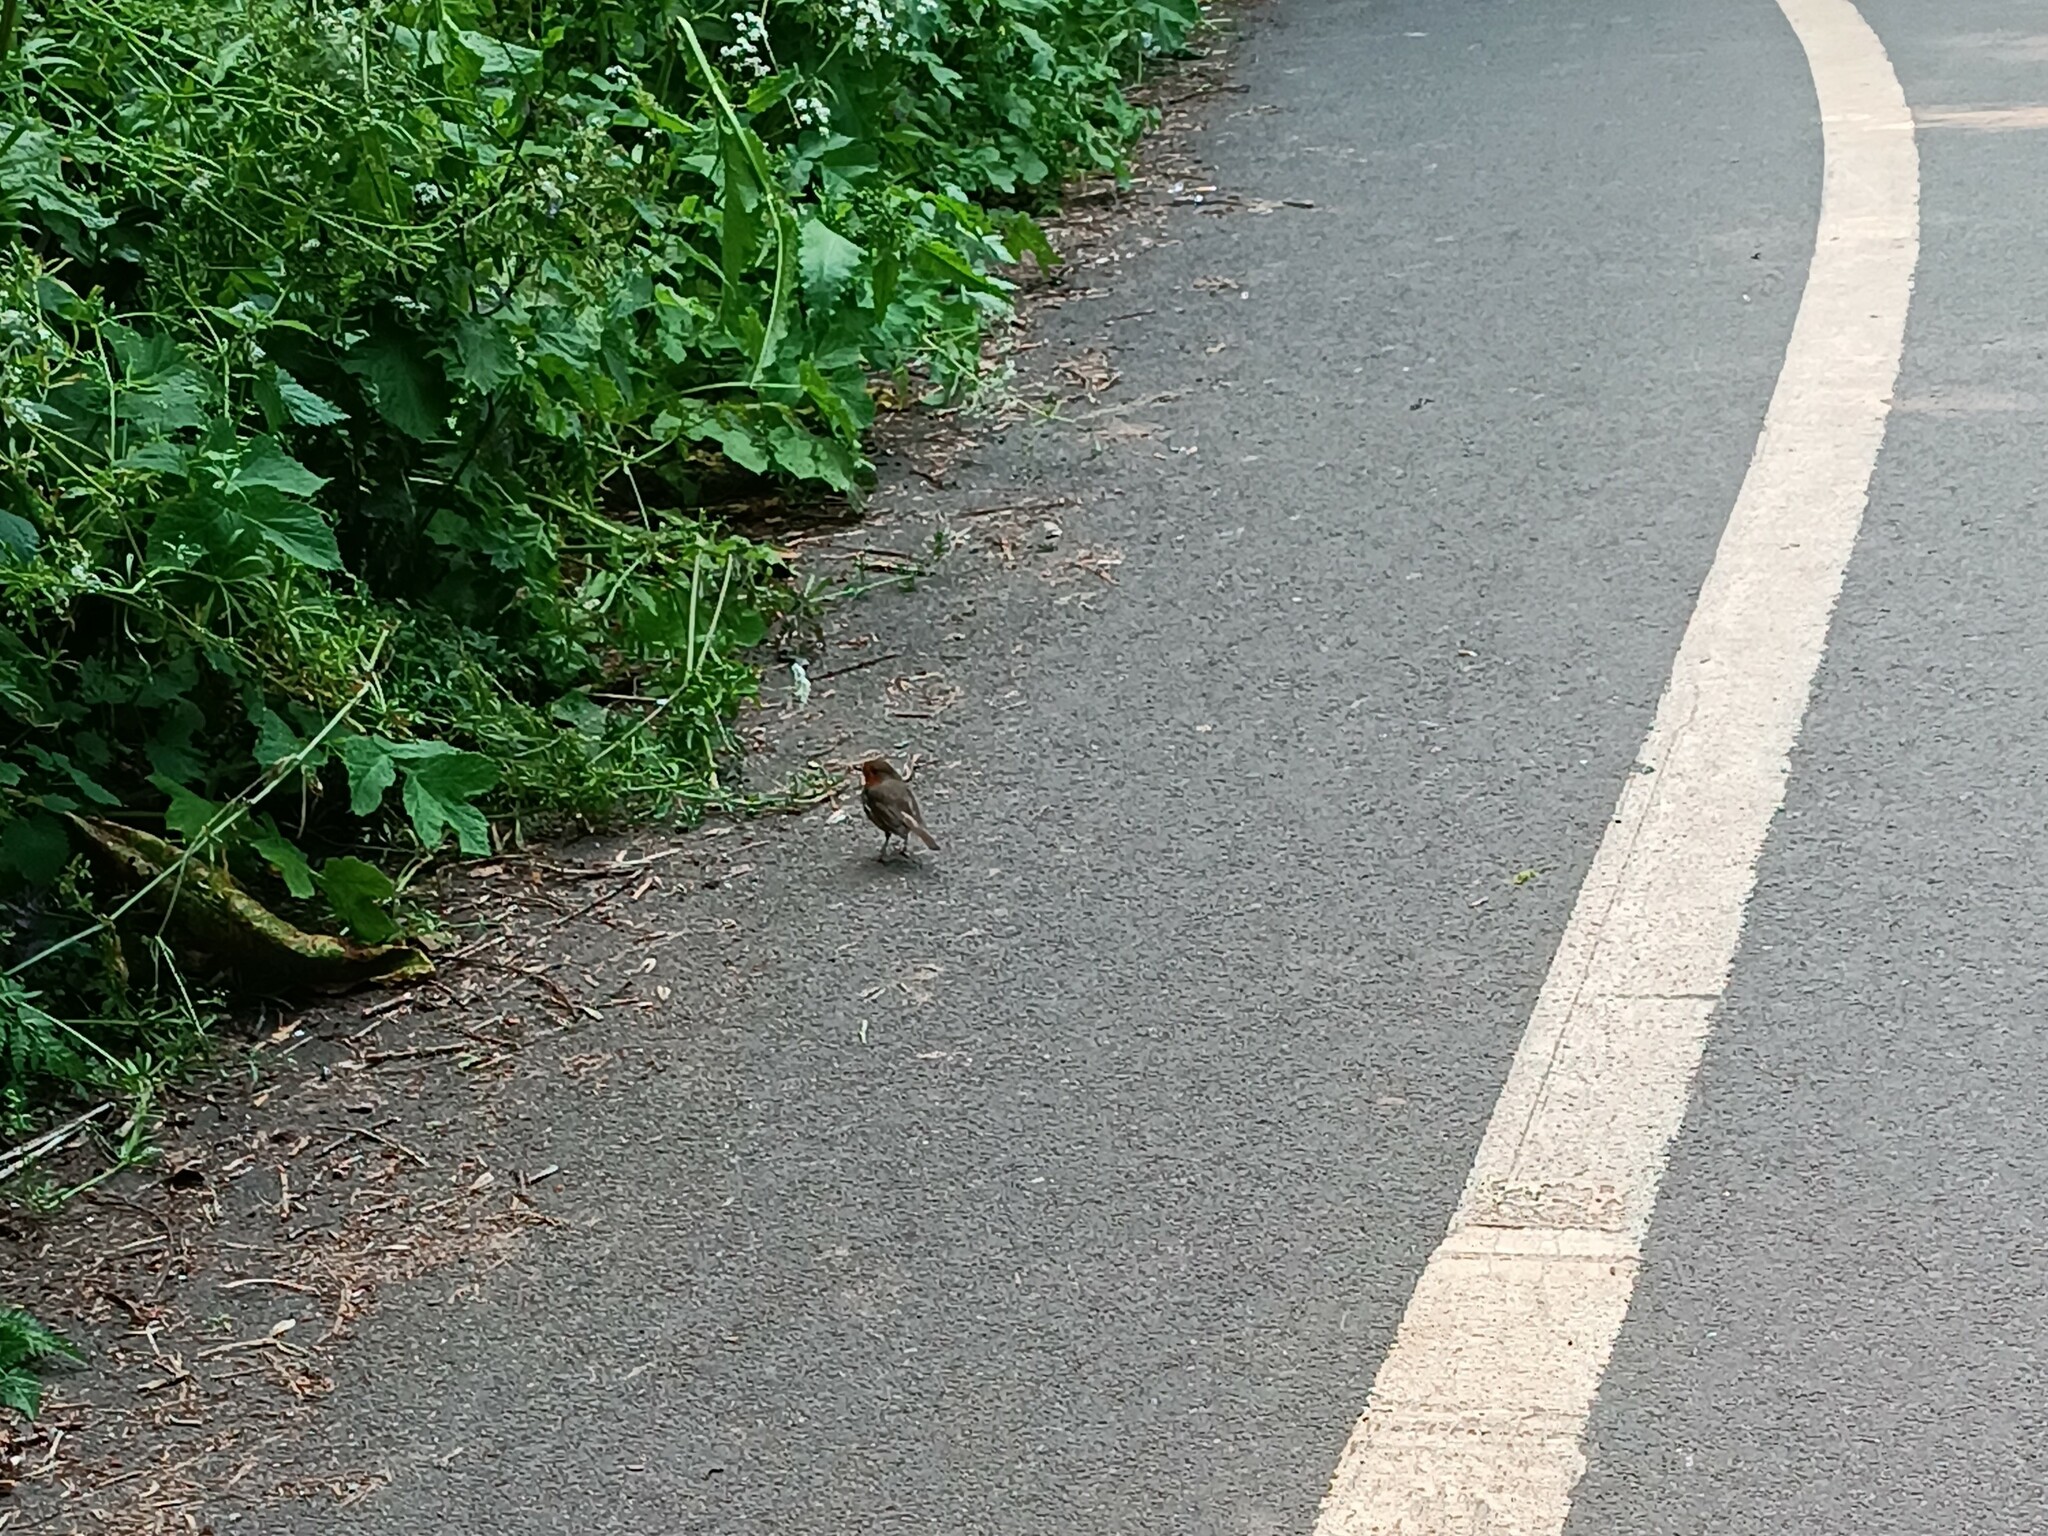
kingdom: Animalia
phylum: Chordata
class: Aves
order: Passeriformes
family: Muscicapidae
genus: Erithacus
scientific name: Erithacus rubecula
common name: European robin
